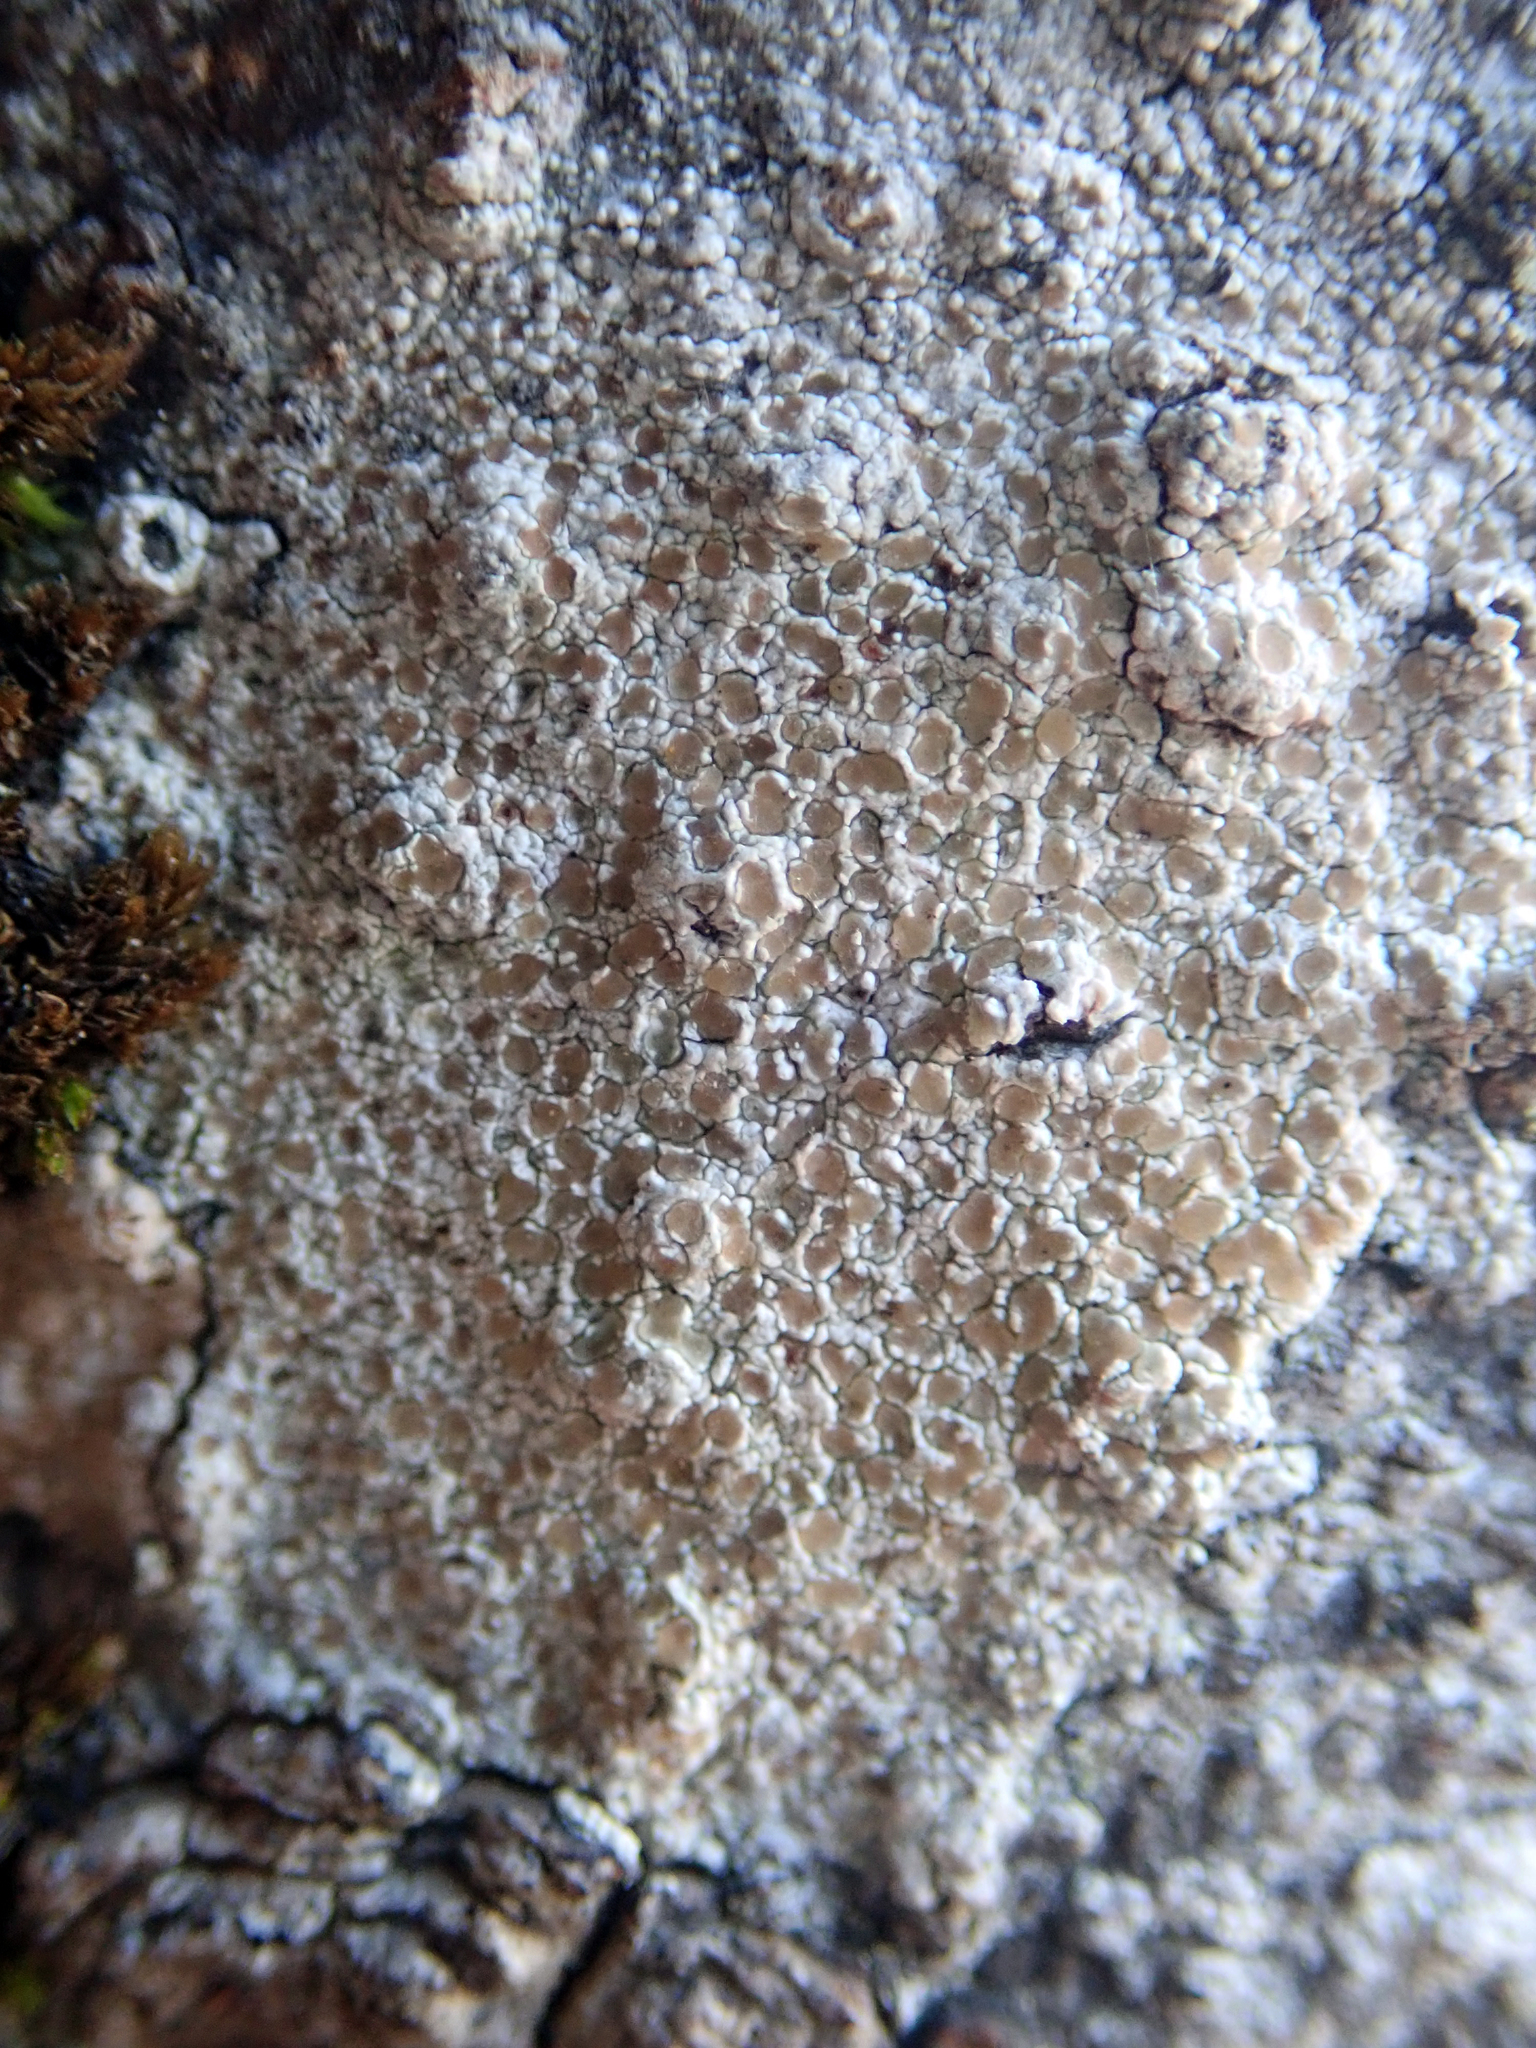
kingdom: Fungi
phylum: Ascomycota
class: Lecanoromycetes
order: Lecanorales
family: Lecanoraceae
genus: Lecanora
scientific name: Lecanora kohu
